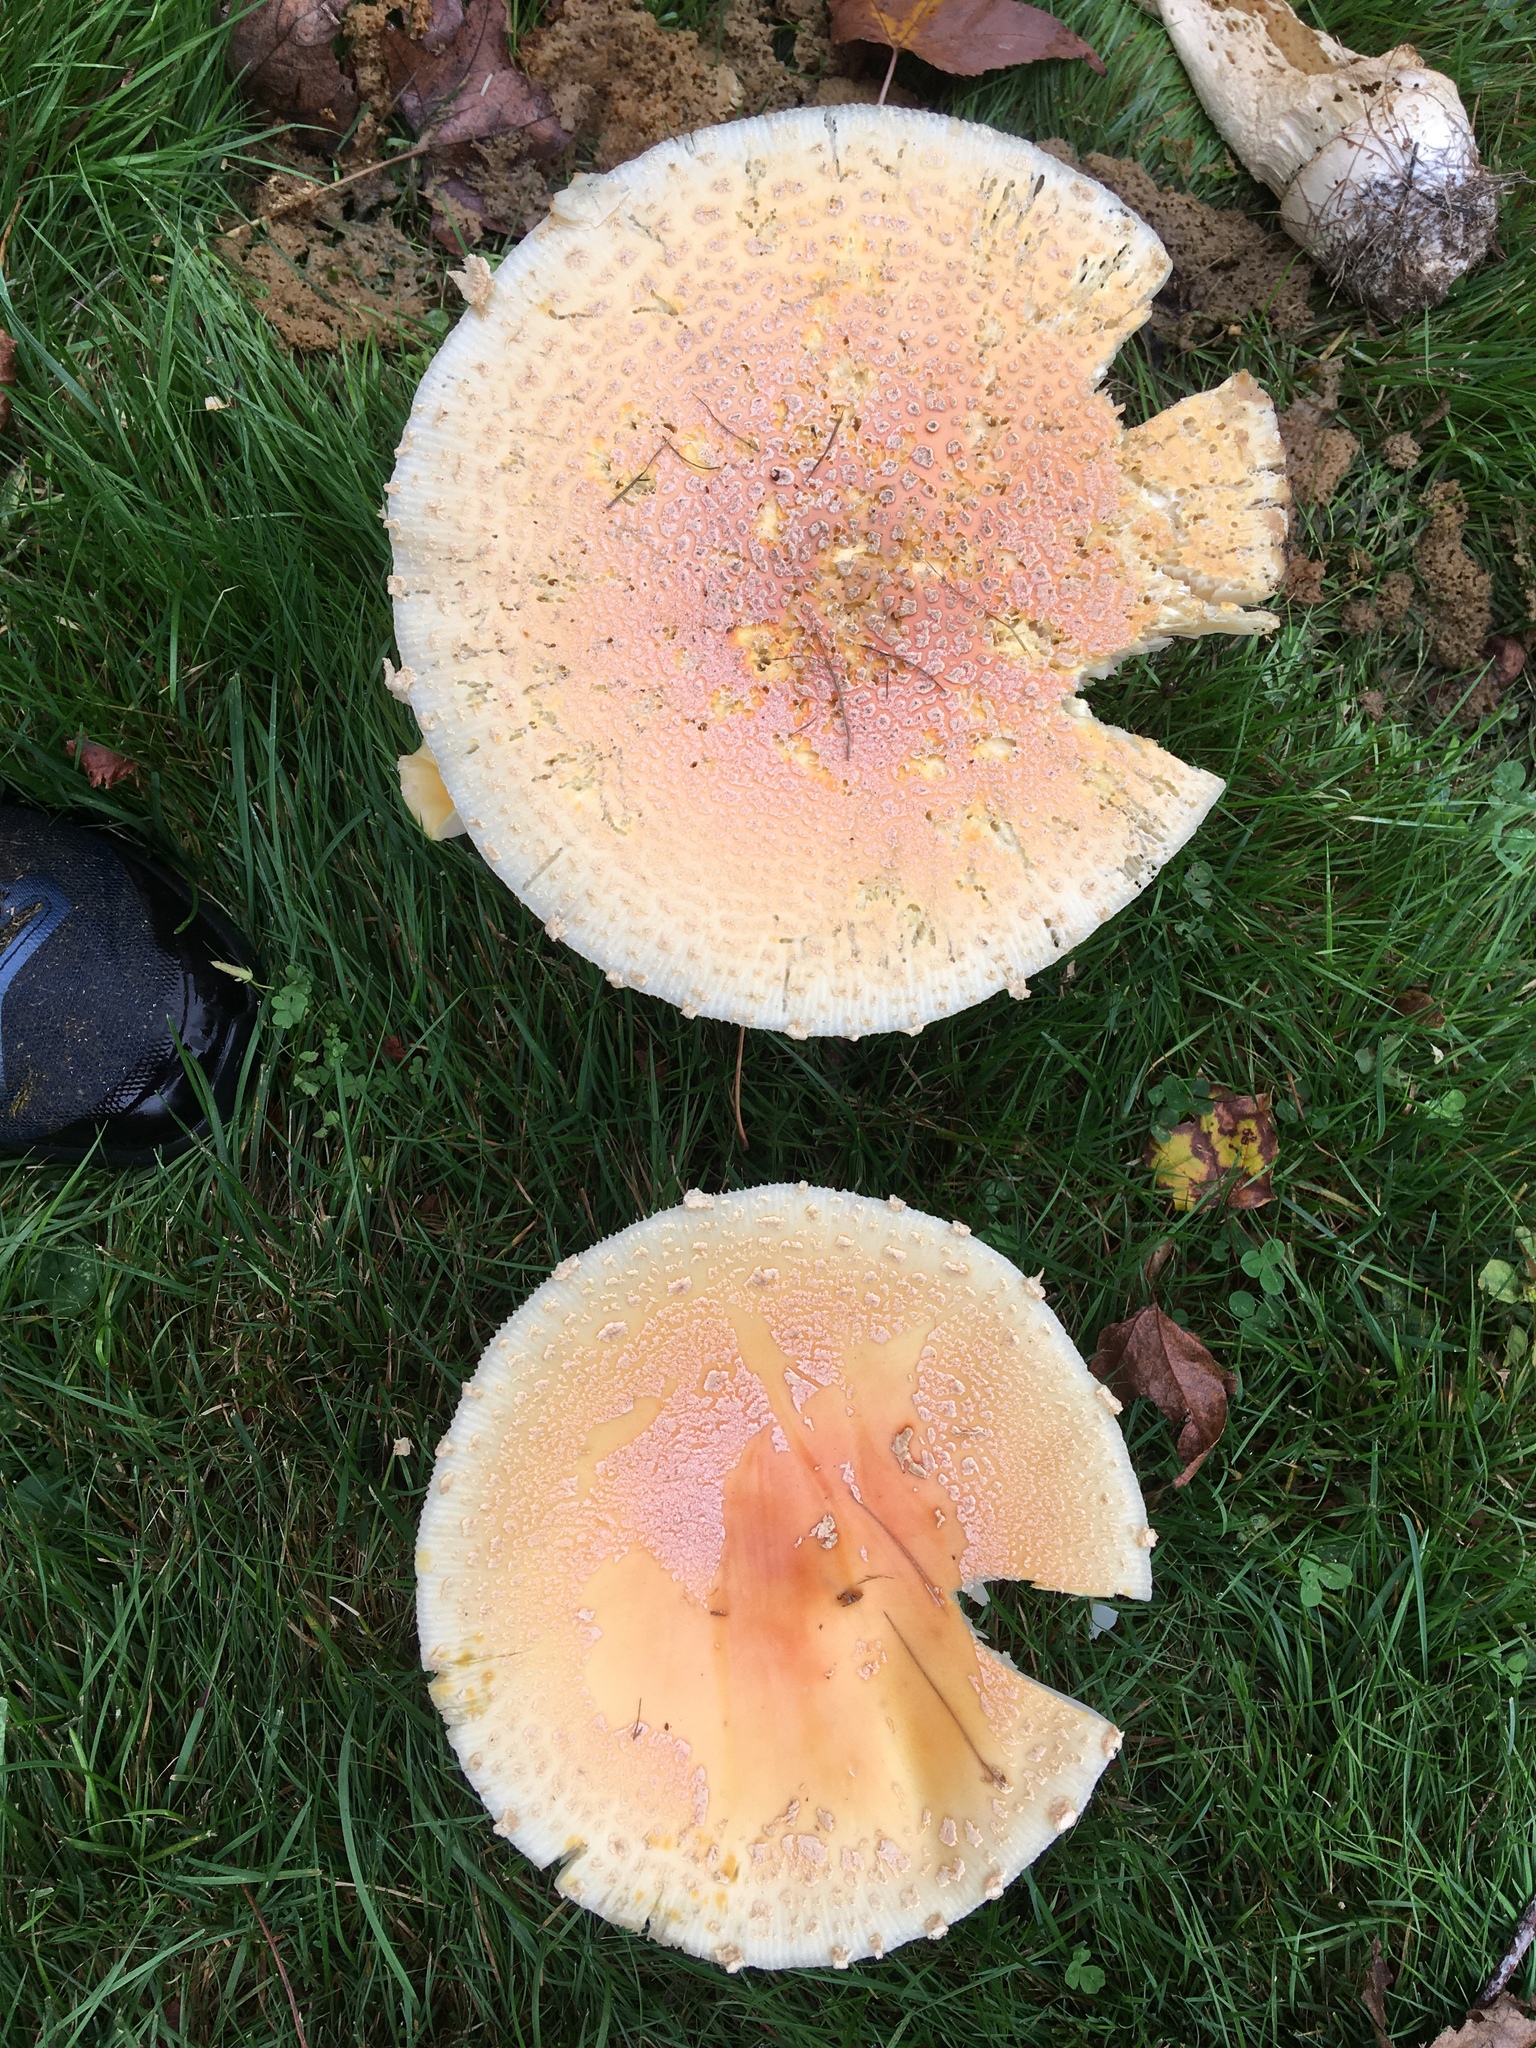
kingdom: Fungi
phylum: Basidiomycota
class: Agaricomycetes
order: Agaricales
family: Amanitaceae
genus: Amanita
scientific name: Amanita muscaria
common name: Fly agaric
